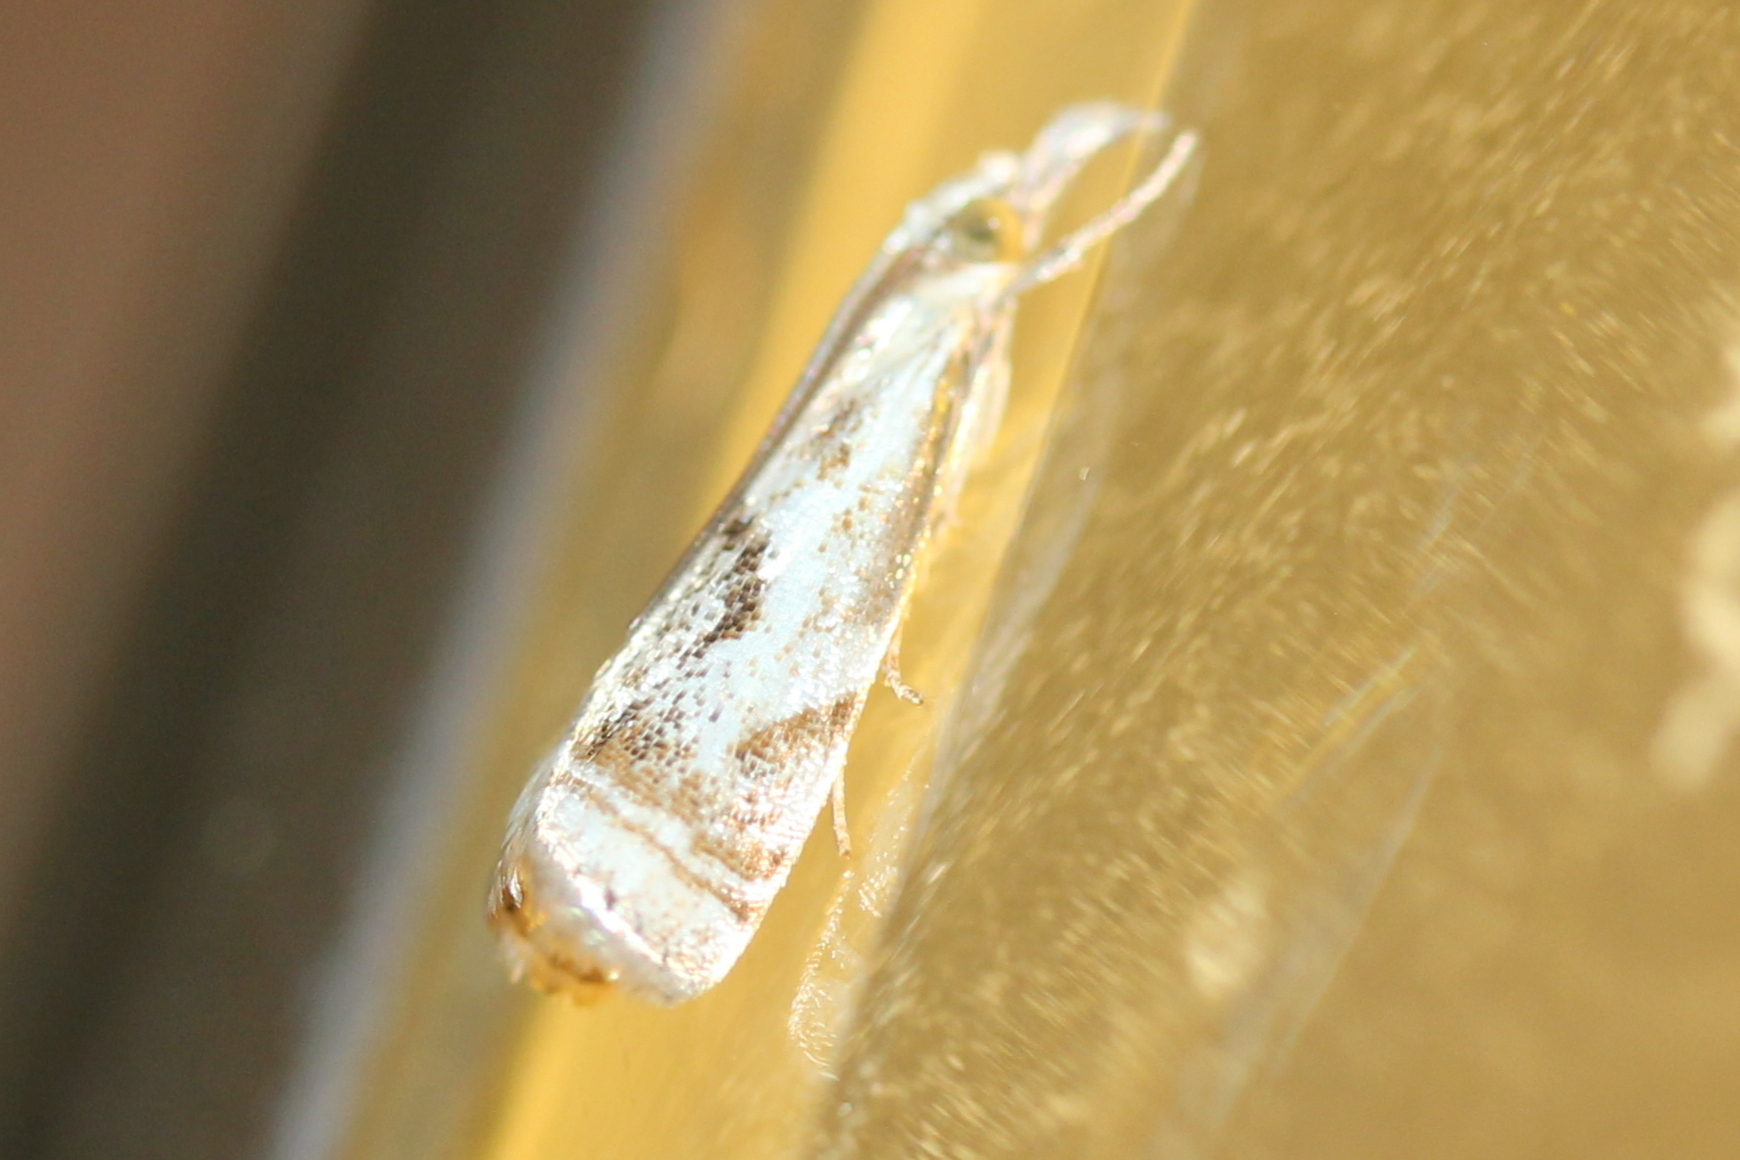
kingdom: Animalia
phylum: Arthropoda
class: Insecta
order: Lepidoptera
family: Crambidae
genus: Microcrambus
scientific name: Microcrambus elegans
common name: Elegant grass-veneer
